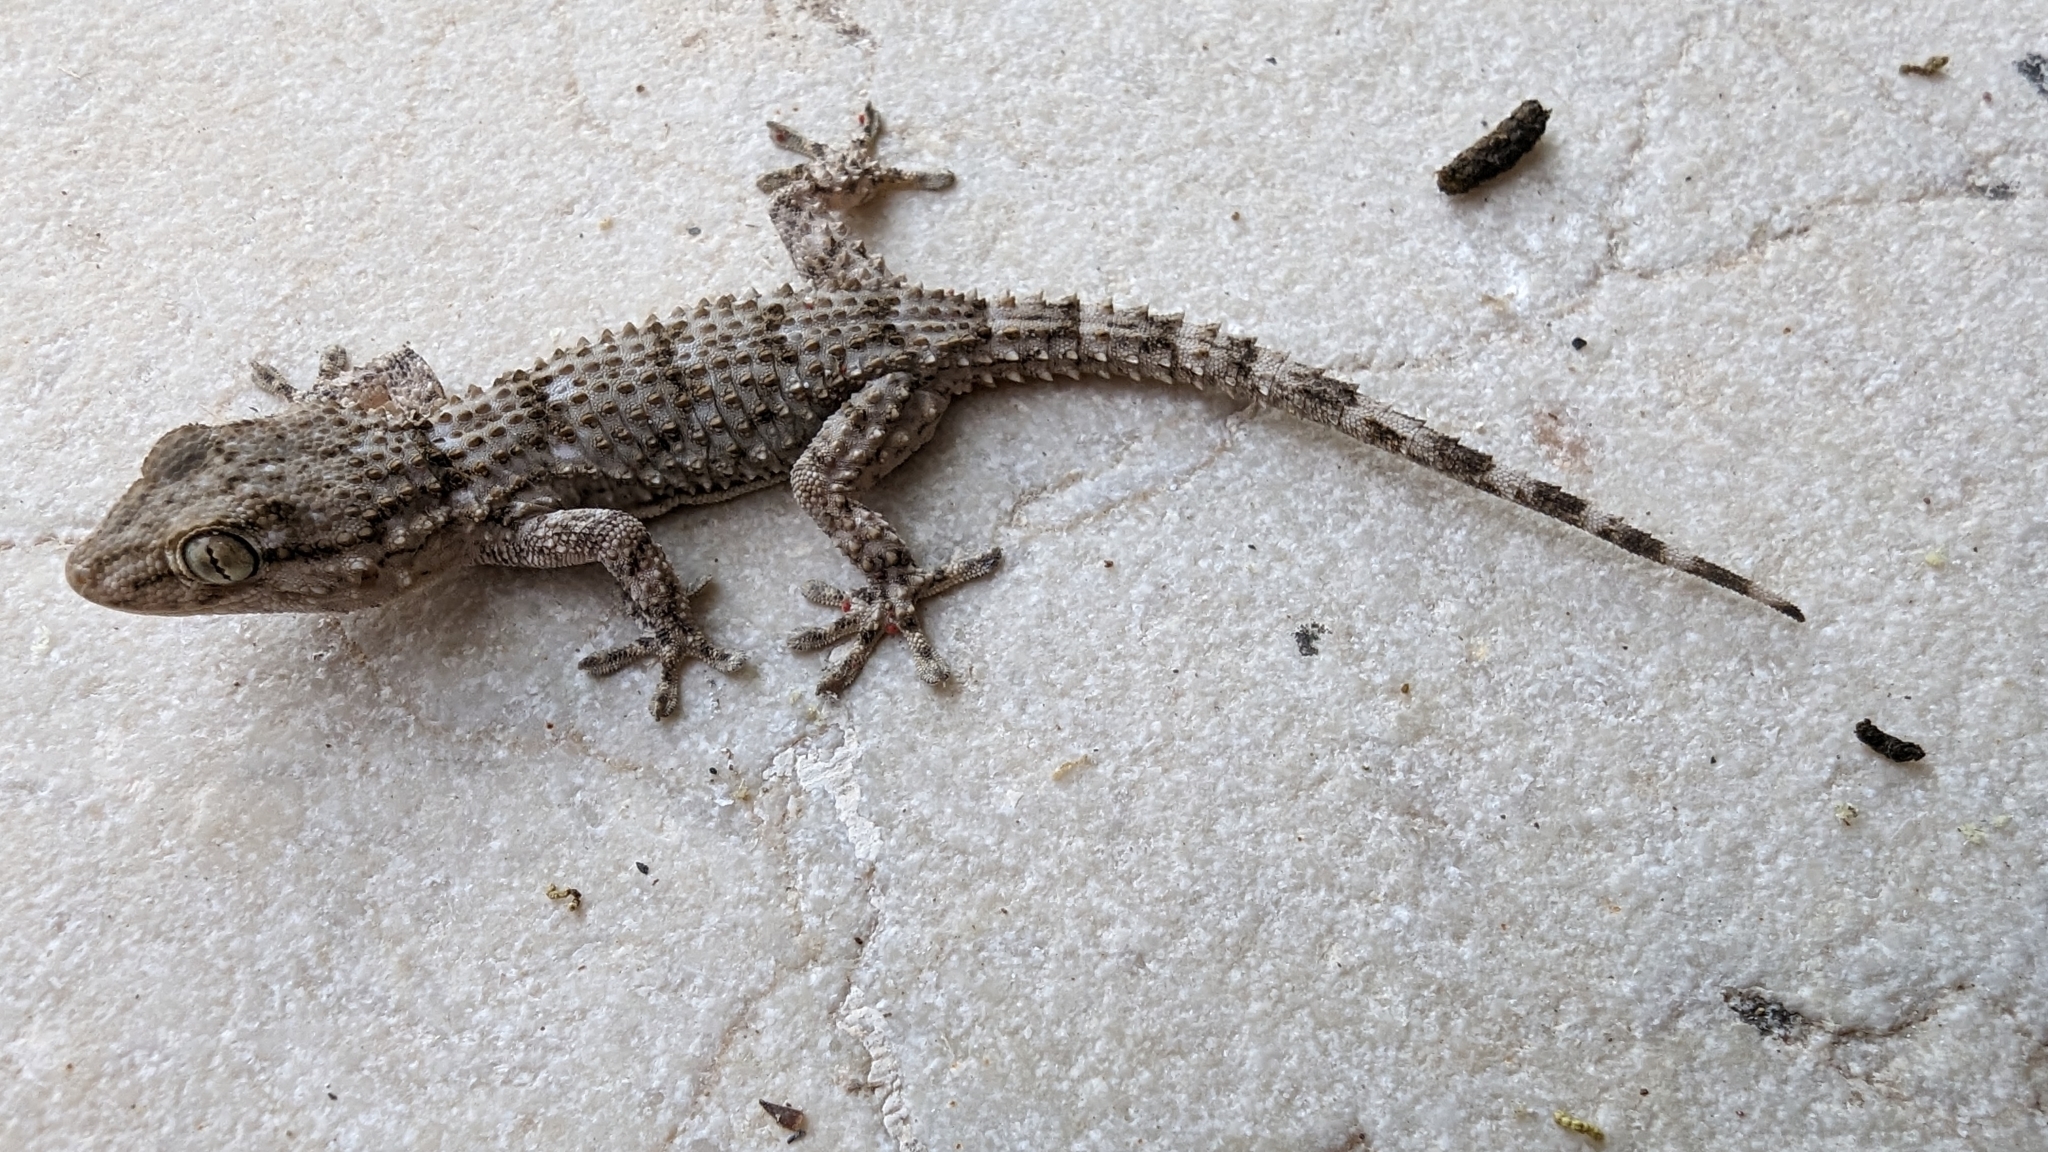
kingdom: Animalia
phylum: Chordata
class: Squamata
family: Phyllodactylidae
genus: Tarentola
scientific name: Tarentola mauritanica
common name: Moorish gecko
